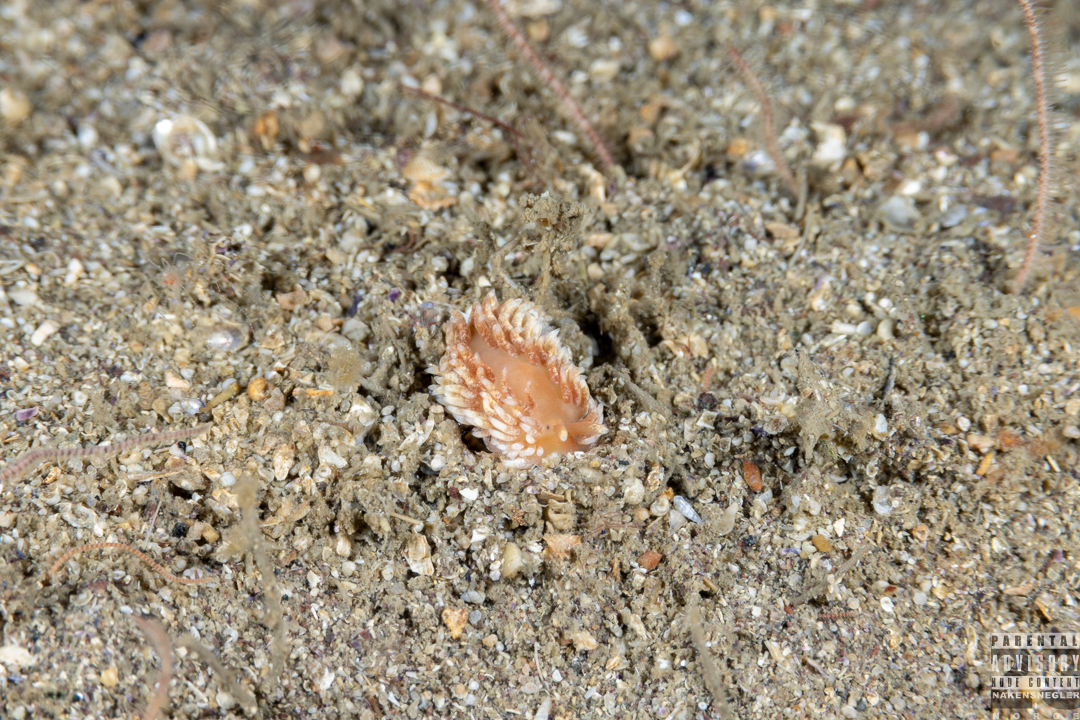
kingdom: Animalia
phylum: Mollusca
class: Gastropoda
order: Nudibranchia
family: Aeolidiidae
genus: Aeolidiella
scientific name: Aeolidiella glauca
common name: Orange-brown aeolid
